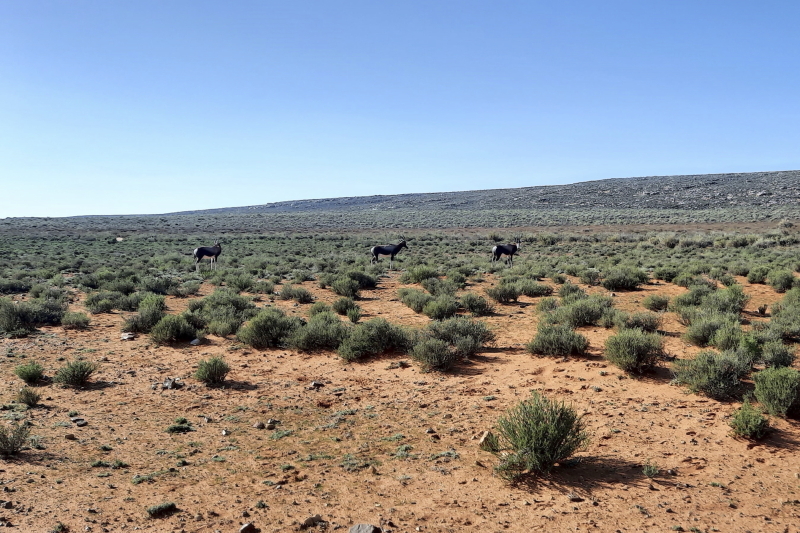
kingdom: Animalia
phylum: Chordata
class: Mammalia
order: Artiodactyla
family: Bovidae
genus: Damaliscus
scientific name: Damaliscus pygargus
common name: Bontebok
